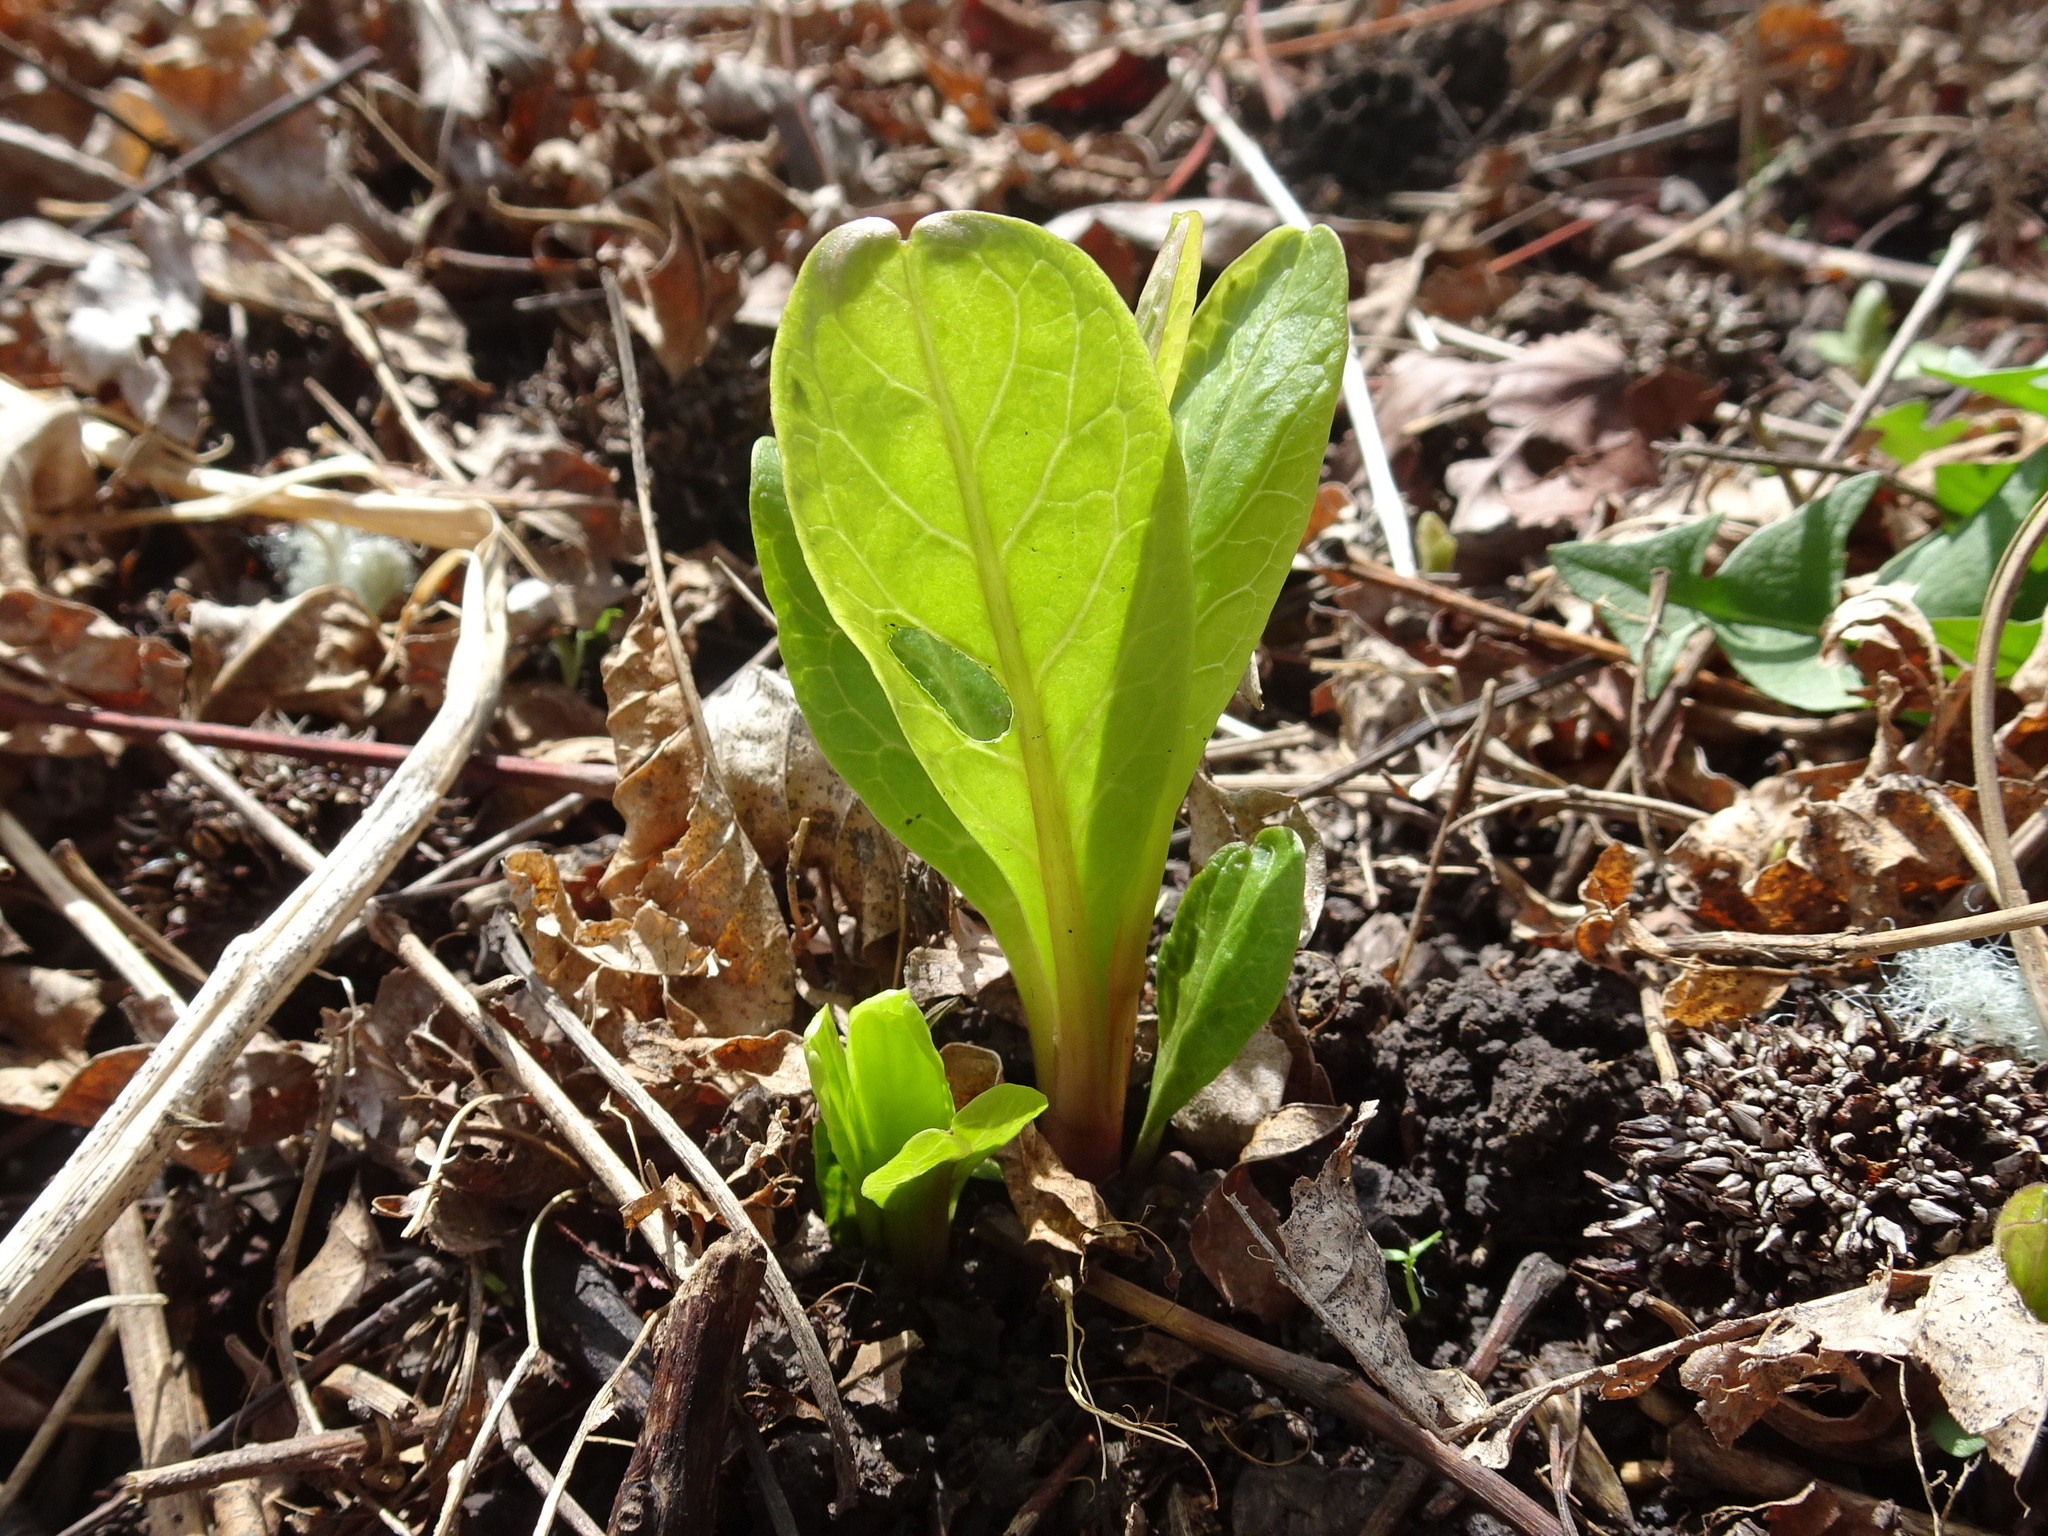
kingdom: Plantae
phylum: Tracheophyta
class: Magnoliopsida
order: Caryophyllales
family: Phytolaccaceae
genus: Phytolacca
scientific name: Phytolacca americana
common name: American pokeweed
